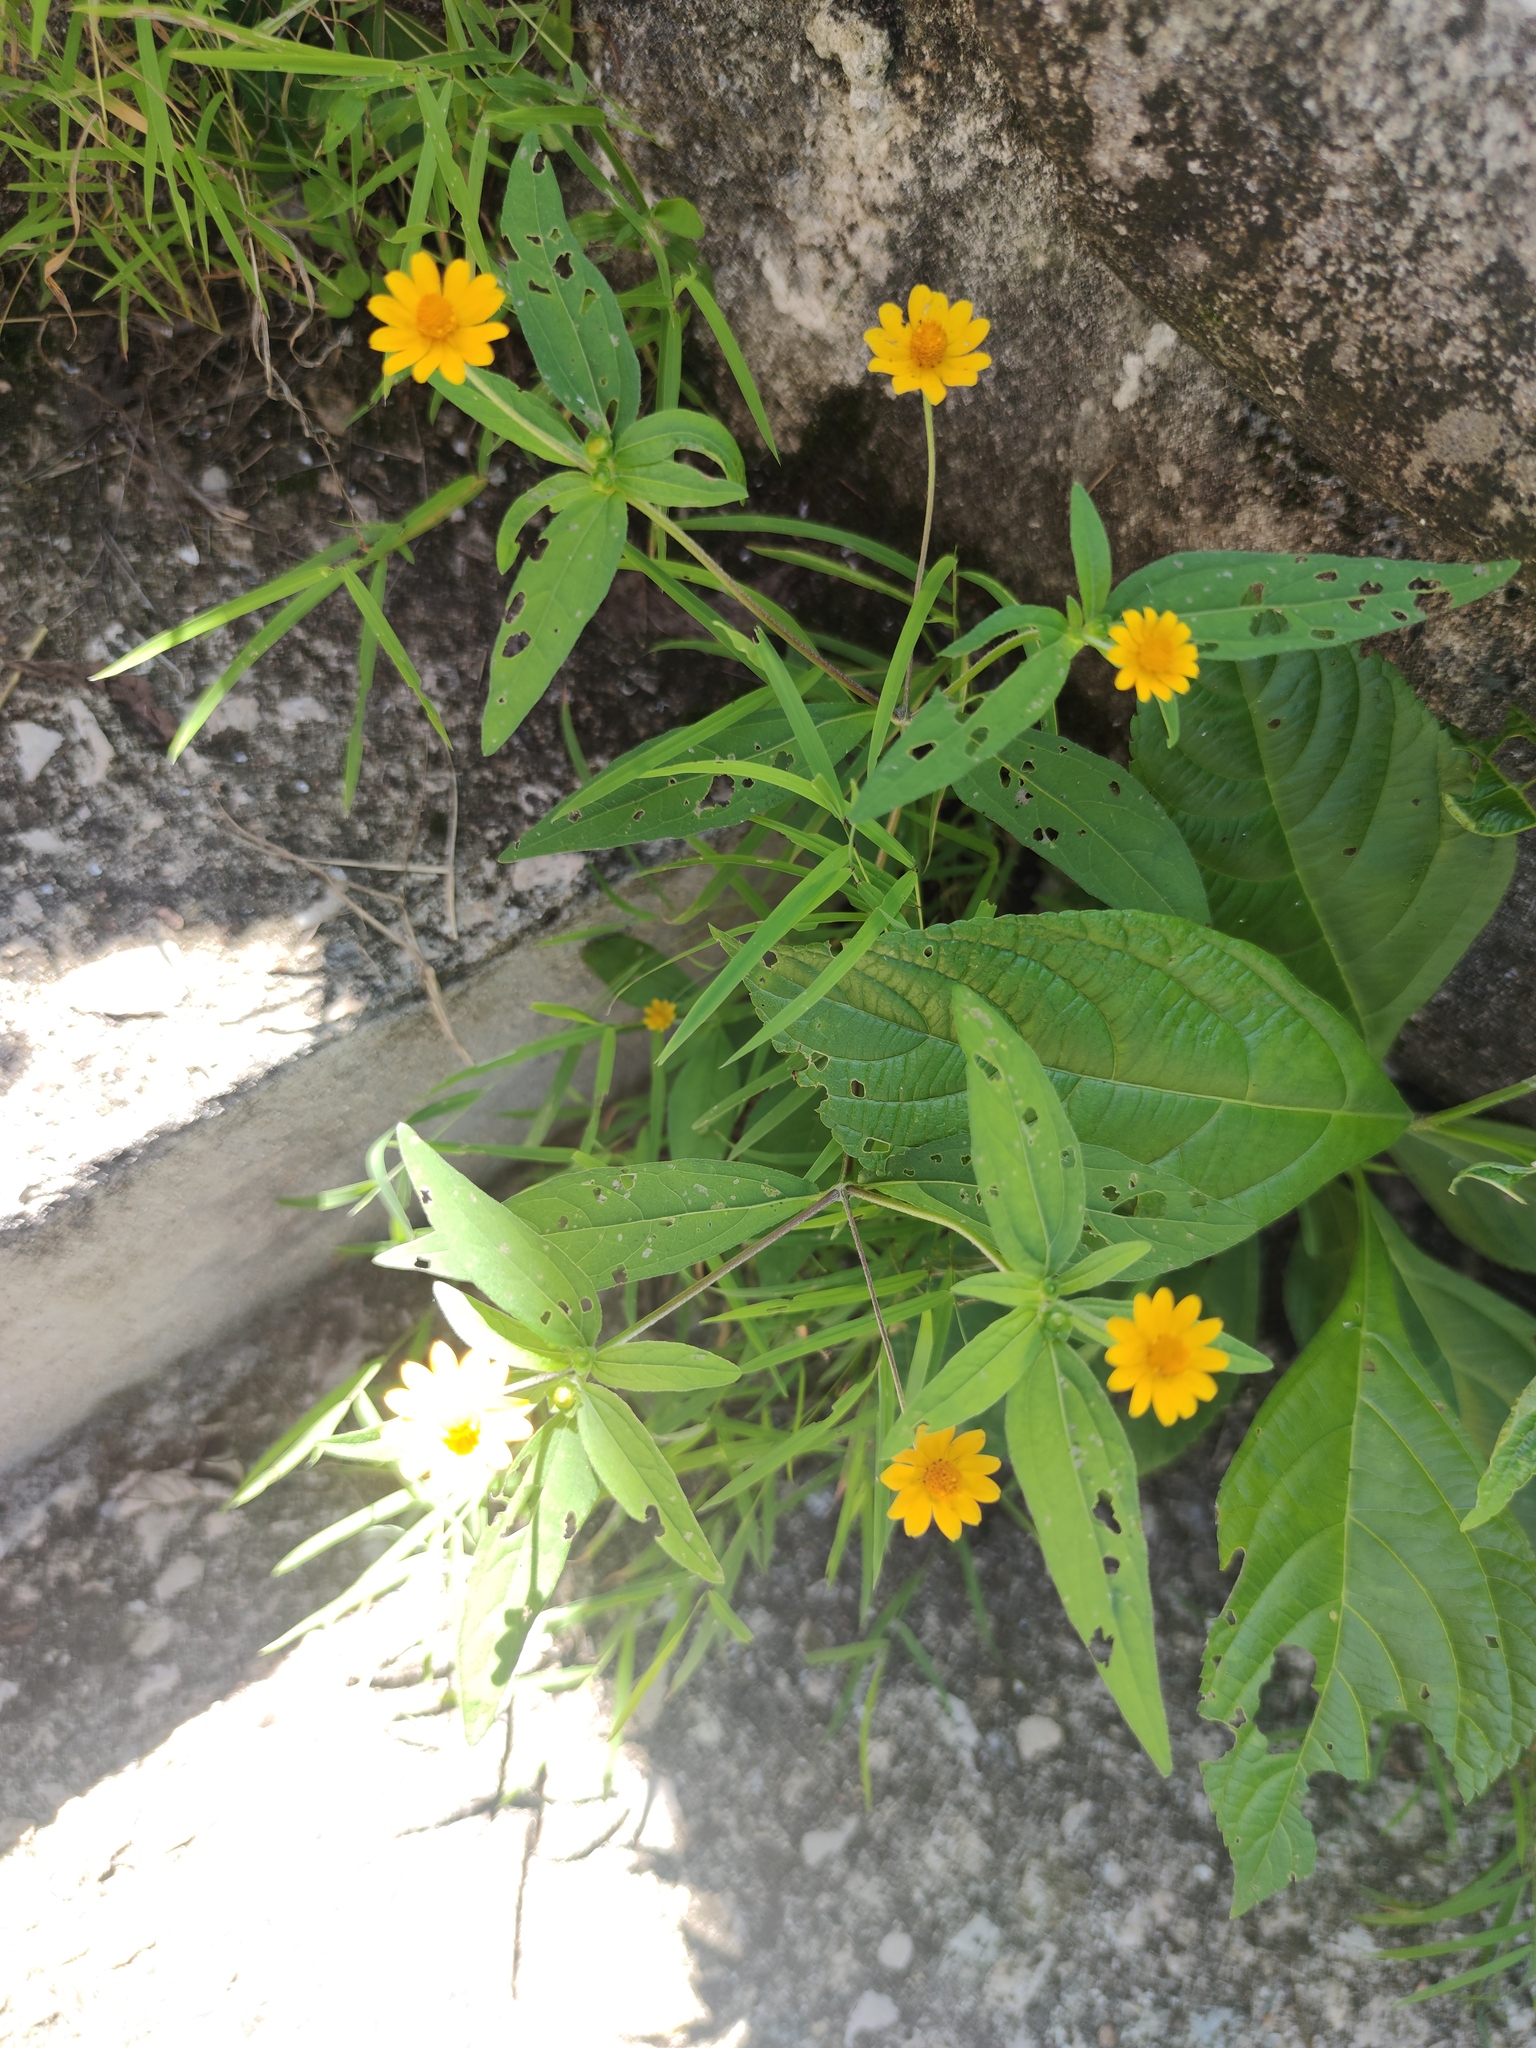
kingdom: Plantae
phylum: Tracheophyta
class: Magnoliopsida
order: Asterales
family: Asteraceae
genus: Melampodium
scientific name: Melampodium divaricatum
